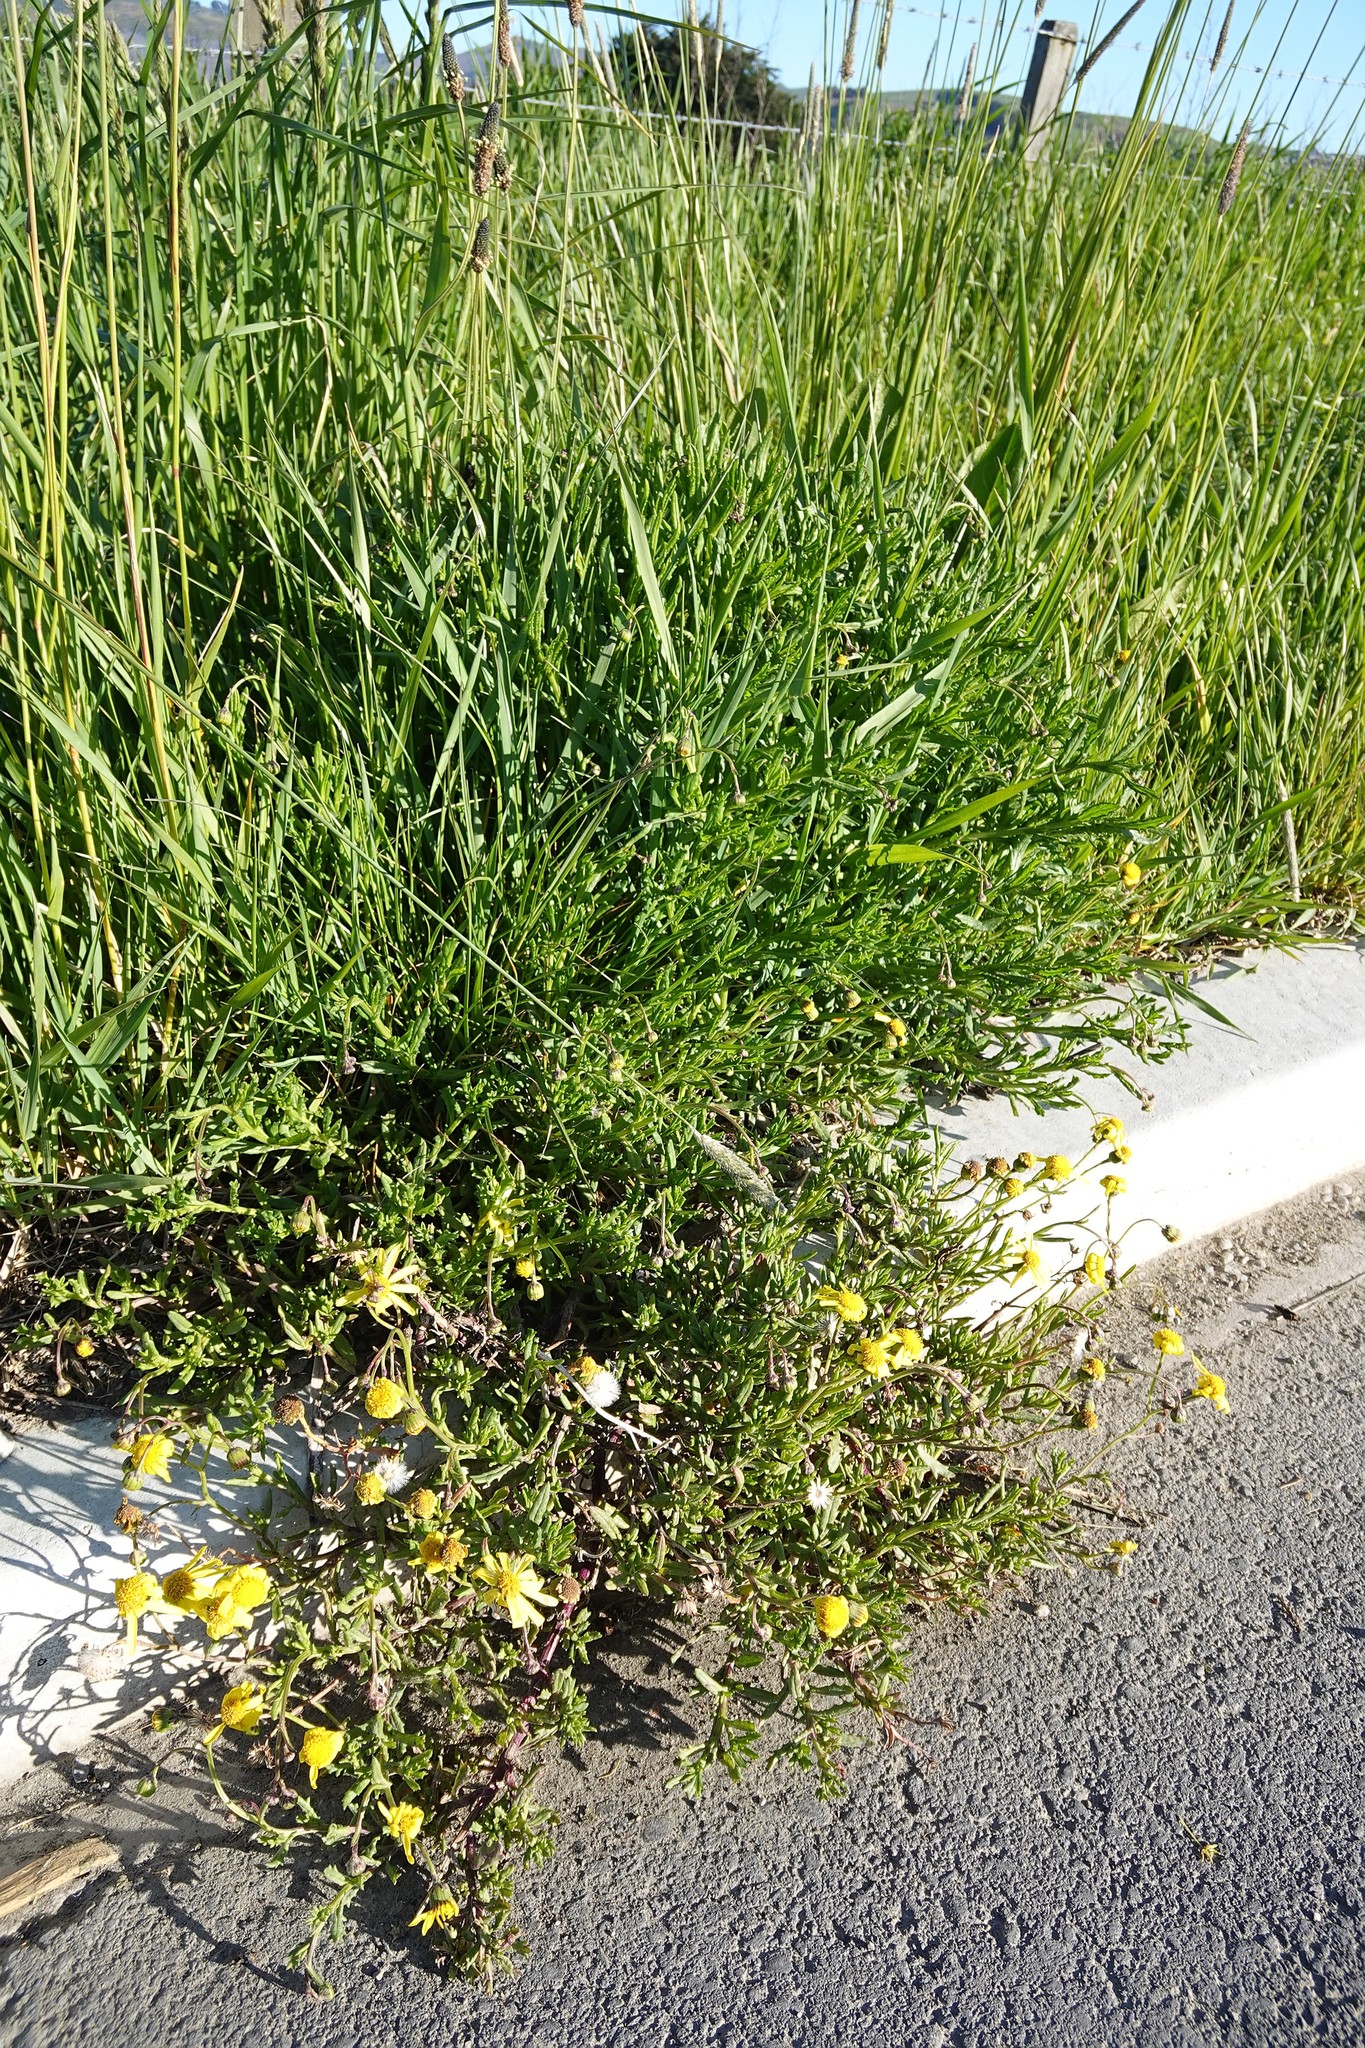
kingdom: Plantae
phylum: Tracheophyta
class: Magnoliopsida
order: Asterales
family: Asteraceae
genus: Senecio
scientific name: Senecio skirrhodon
